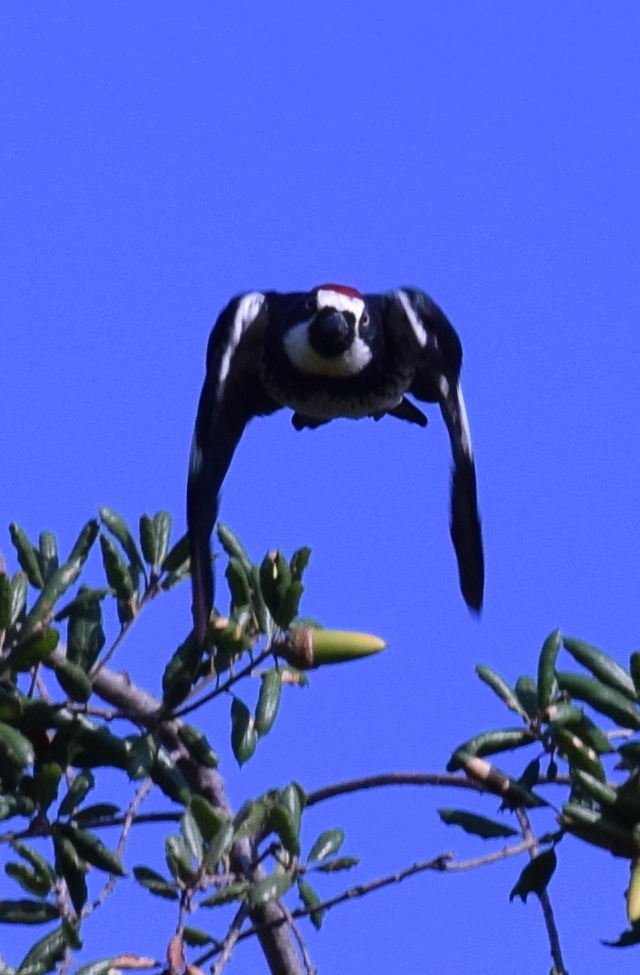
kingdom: Animalia
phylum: Chordata
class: Aves
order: Piciformes
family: Picidae
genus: Melanerpes
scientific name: Melanerpes formicivorus
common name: Acorn woodpecker
